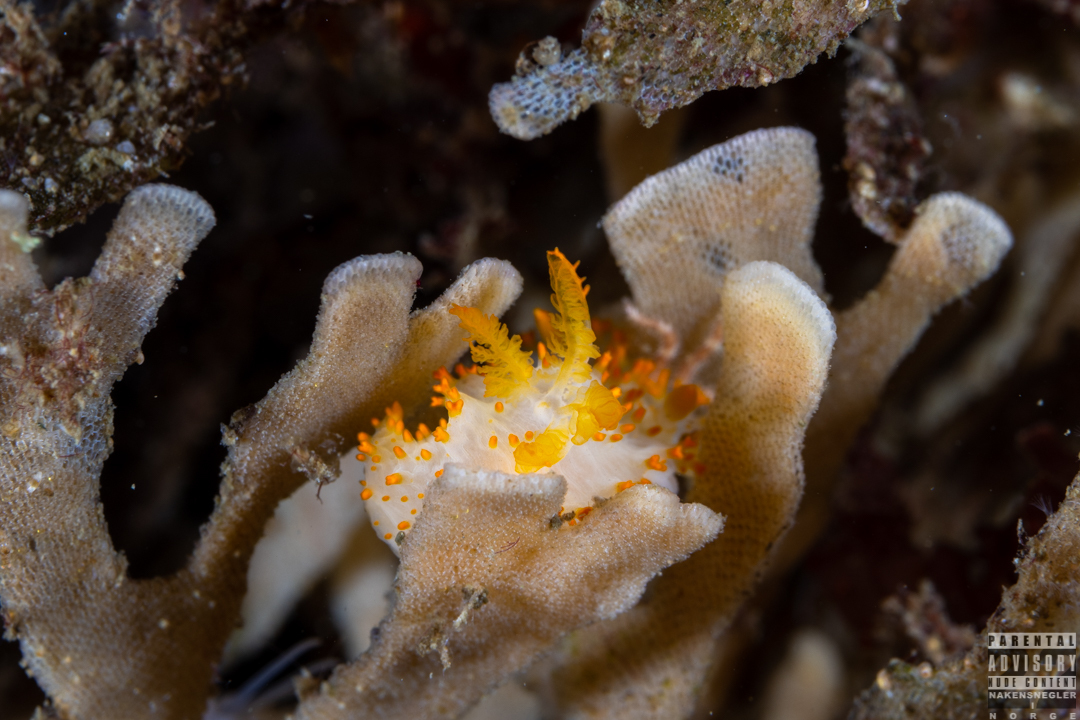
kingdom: Animalia
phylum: Mollusca
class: Gastropoda
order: Nudibranchia
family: Polyceridae
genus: Crimora
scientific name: Crimora papillata
